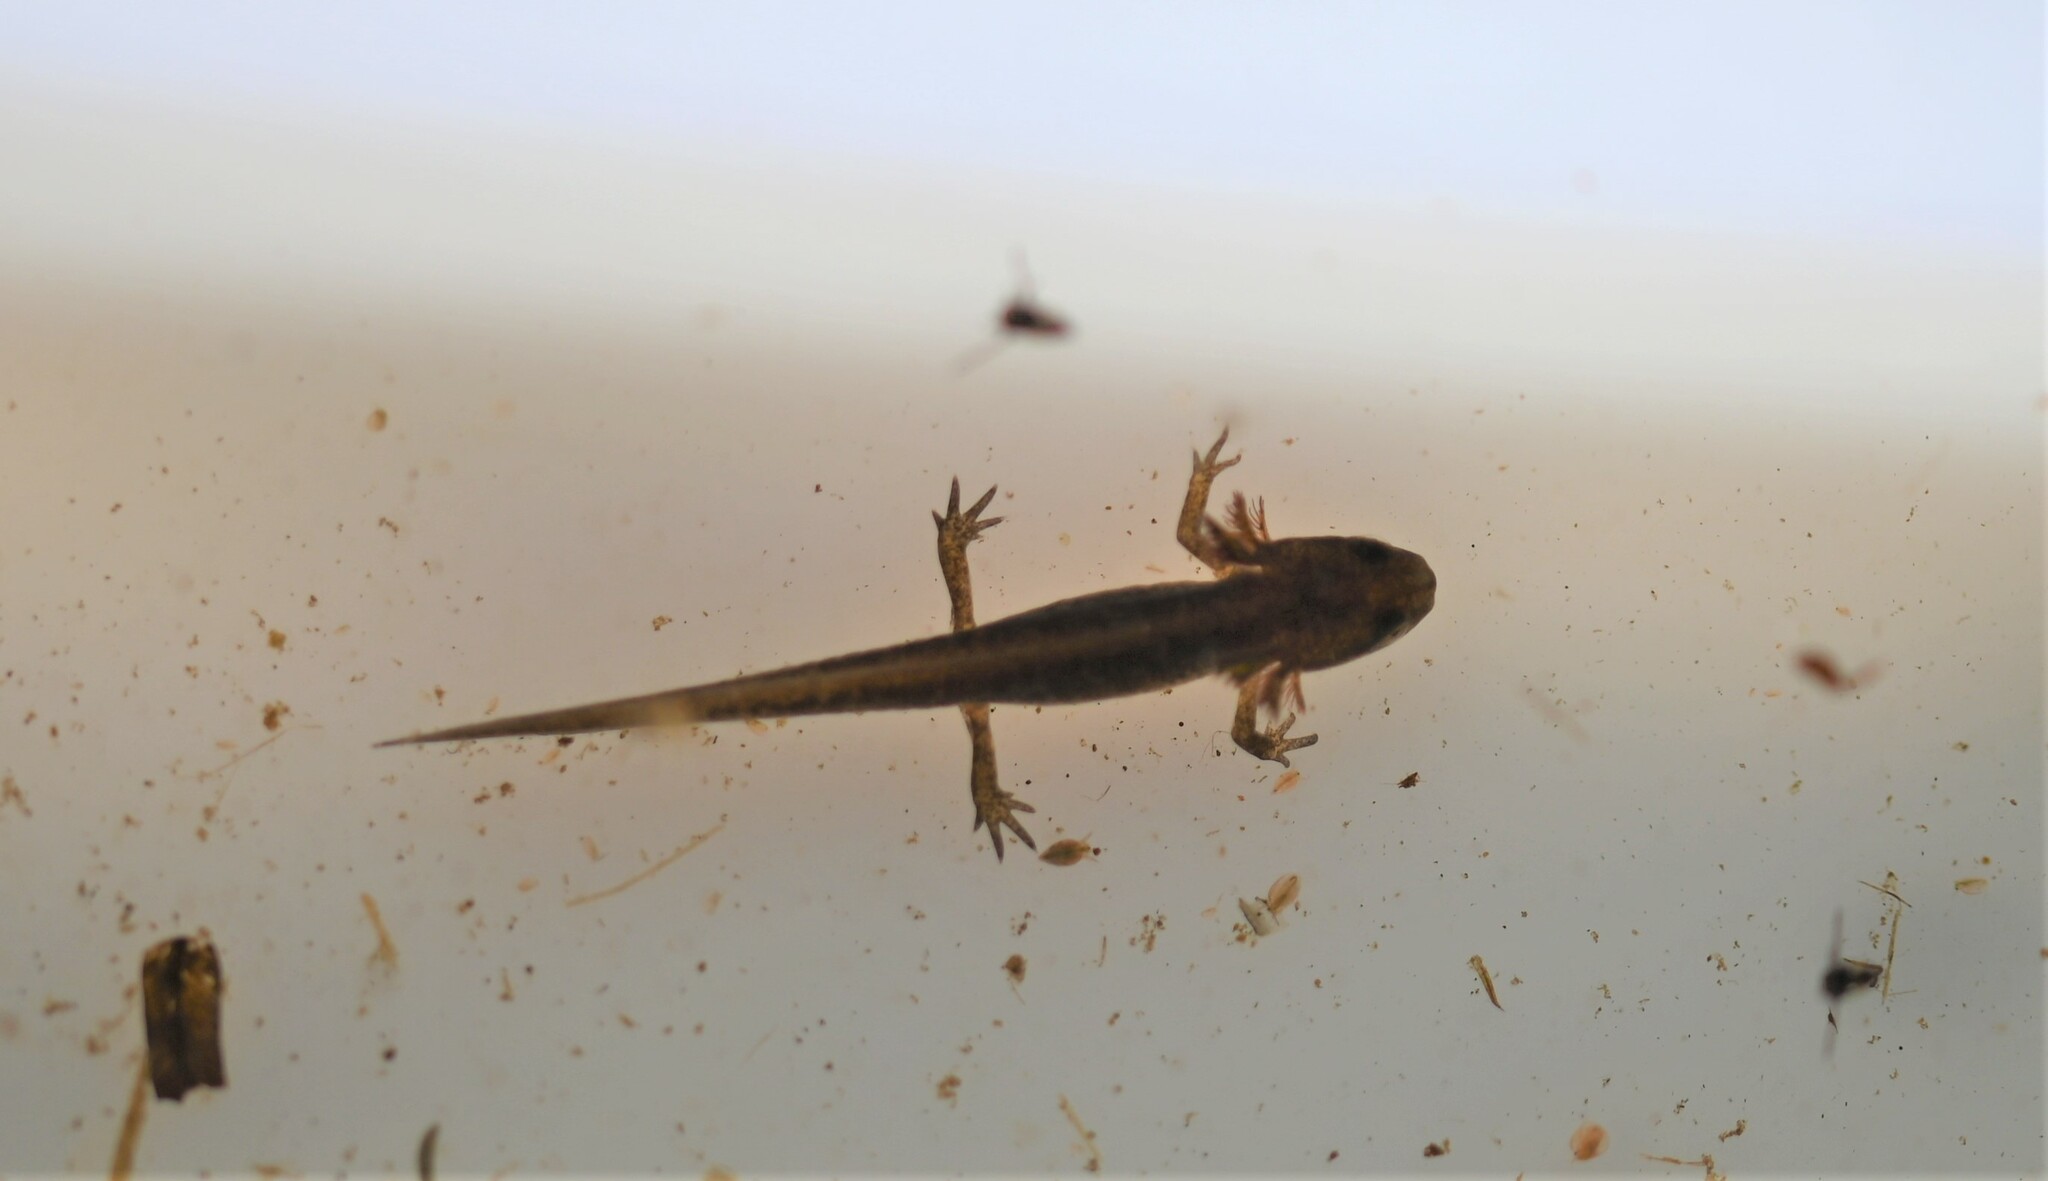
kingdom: Animalia
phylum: Chordata
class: Amphibia
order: Caudata
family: Salamandridae
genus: Lissotriton
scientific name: Lissotriton
